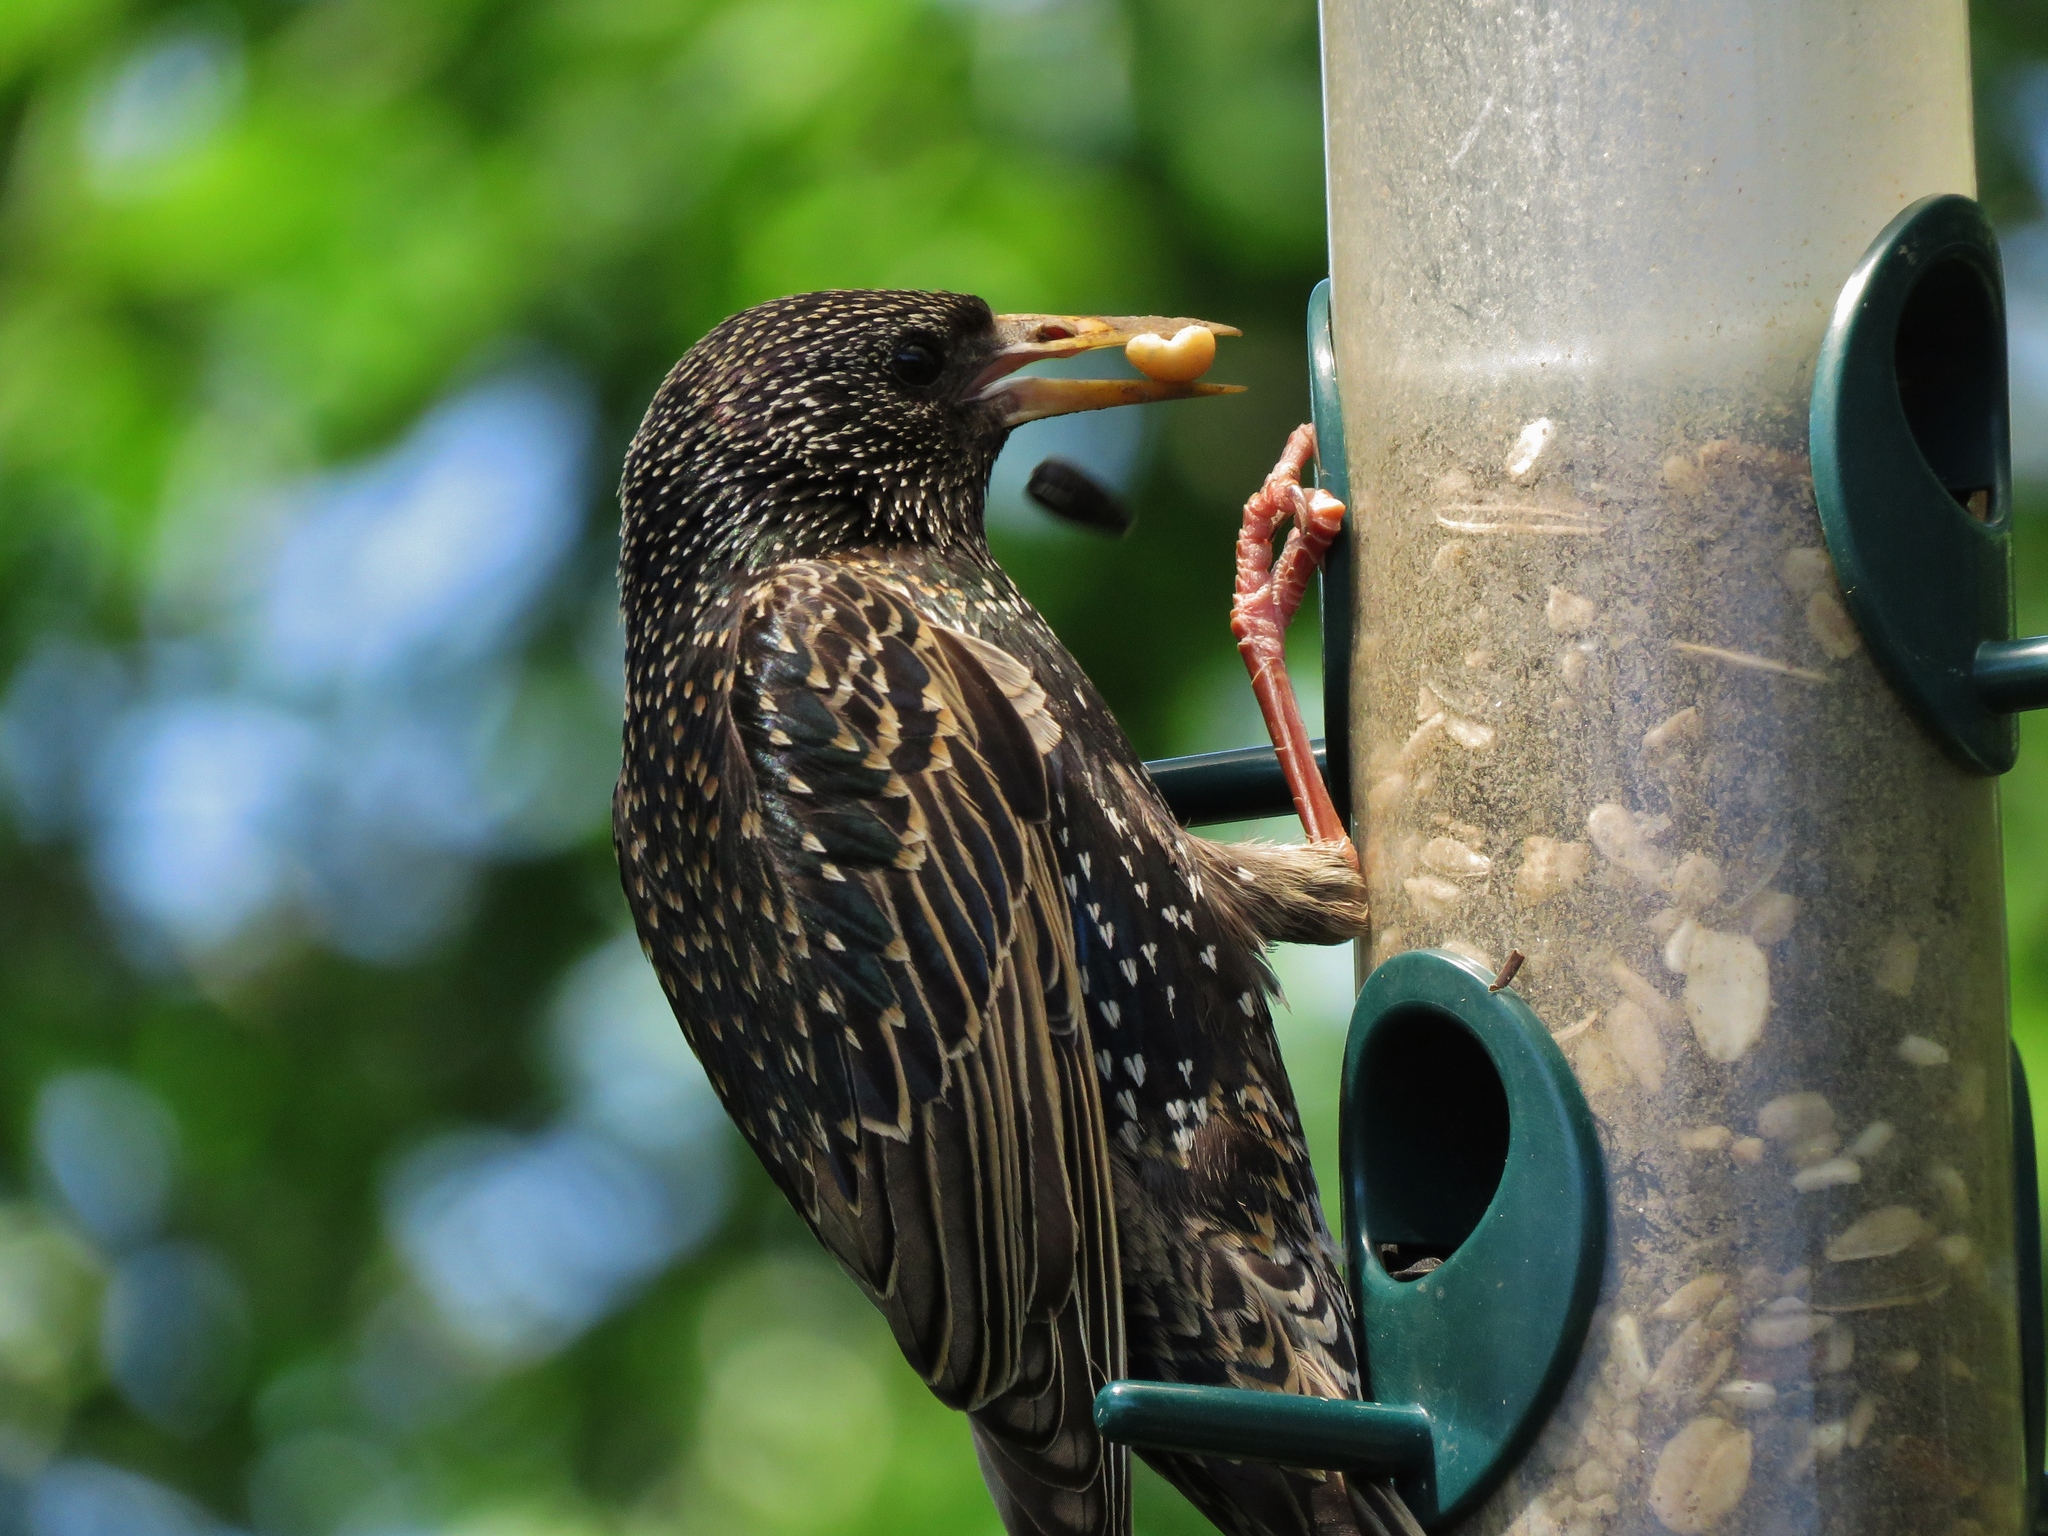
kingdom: Animalia
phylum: Chordata
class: Aves
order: Passeriformes
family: Sturnidae
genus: Sturnus
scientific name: Sturnus vulgaris
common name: Common starling
